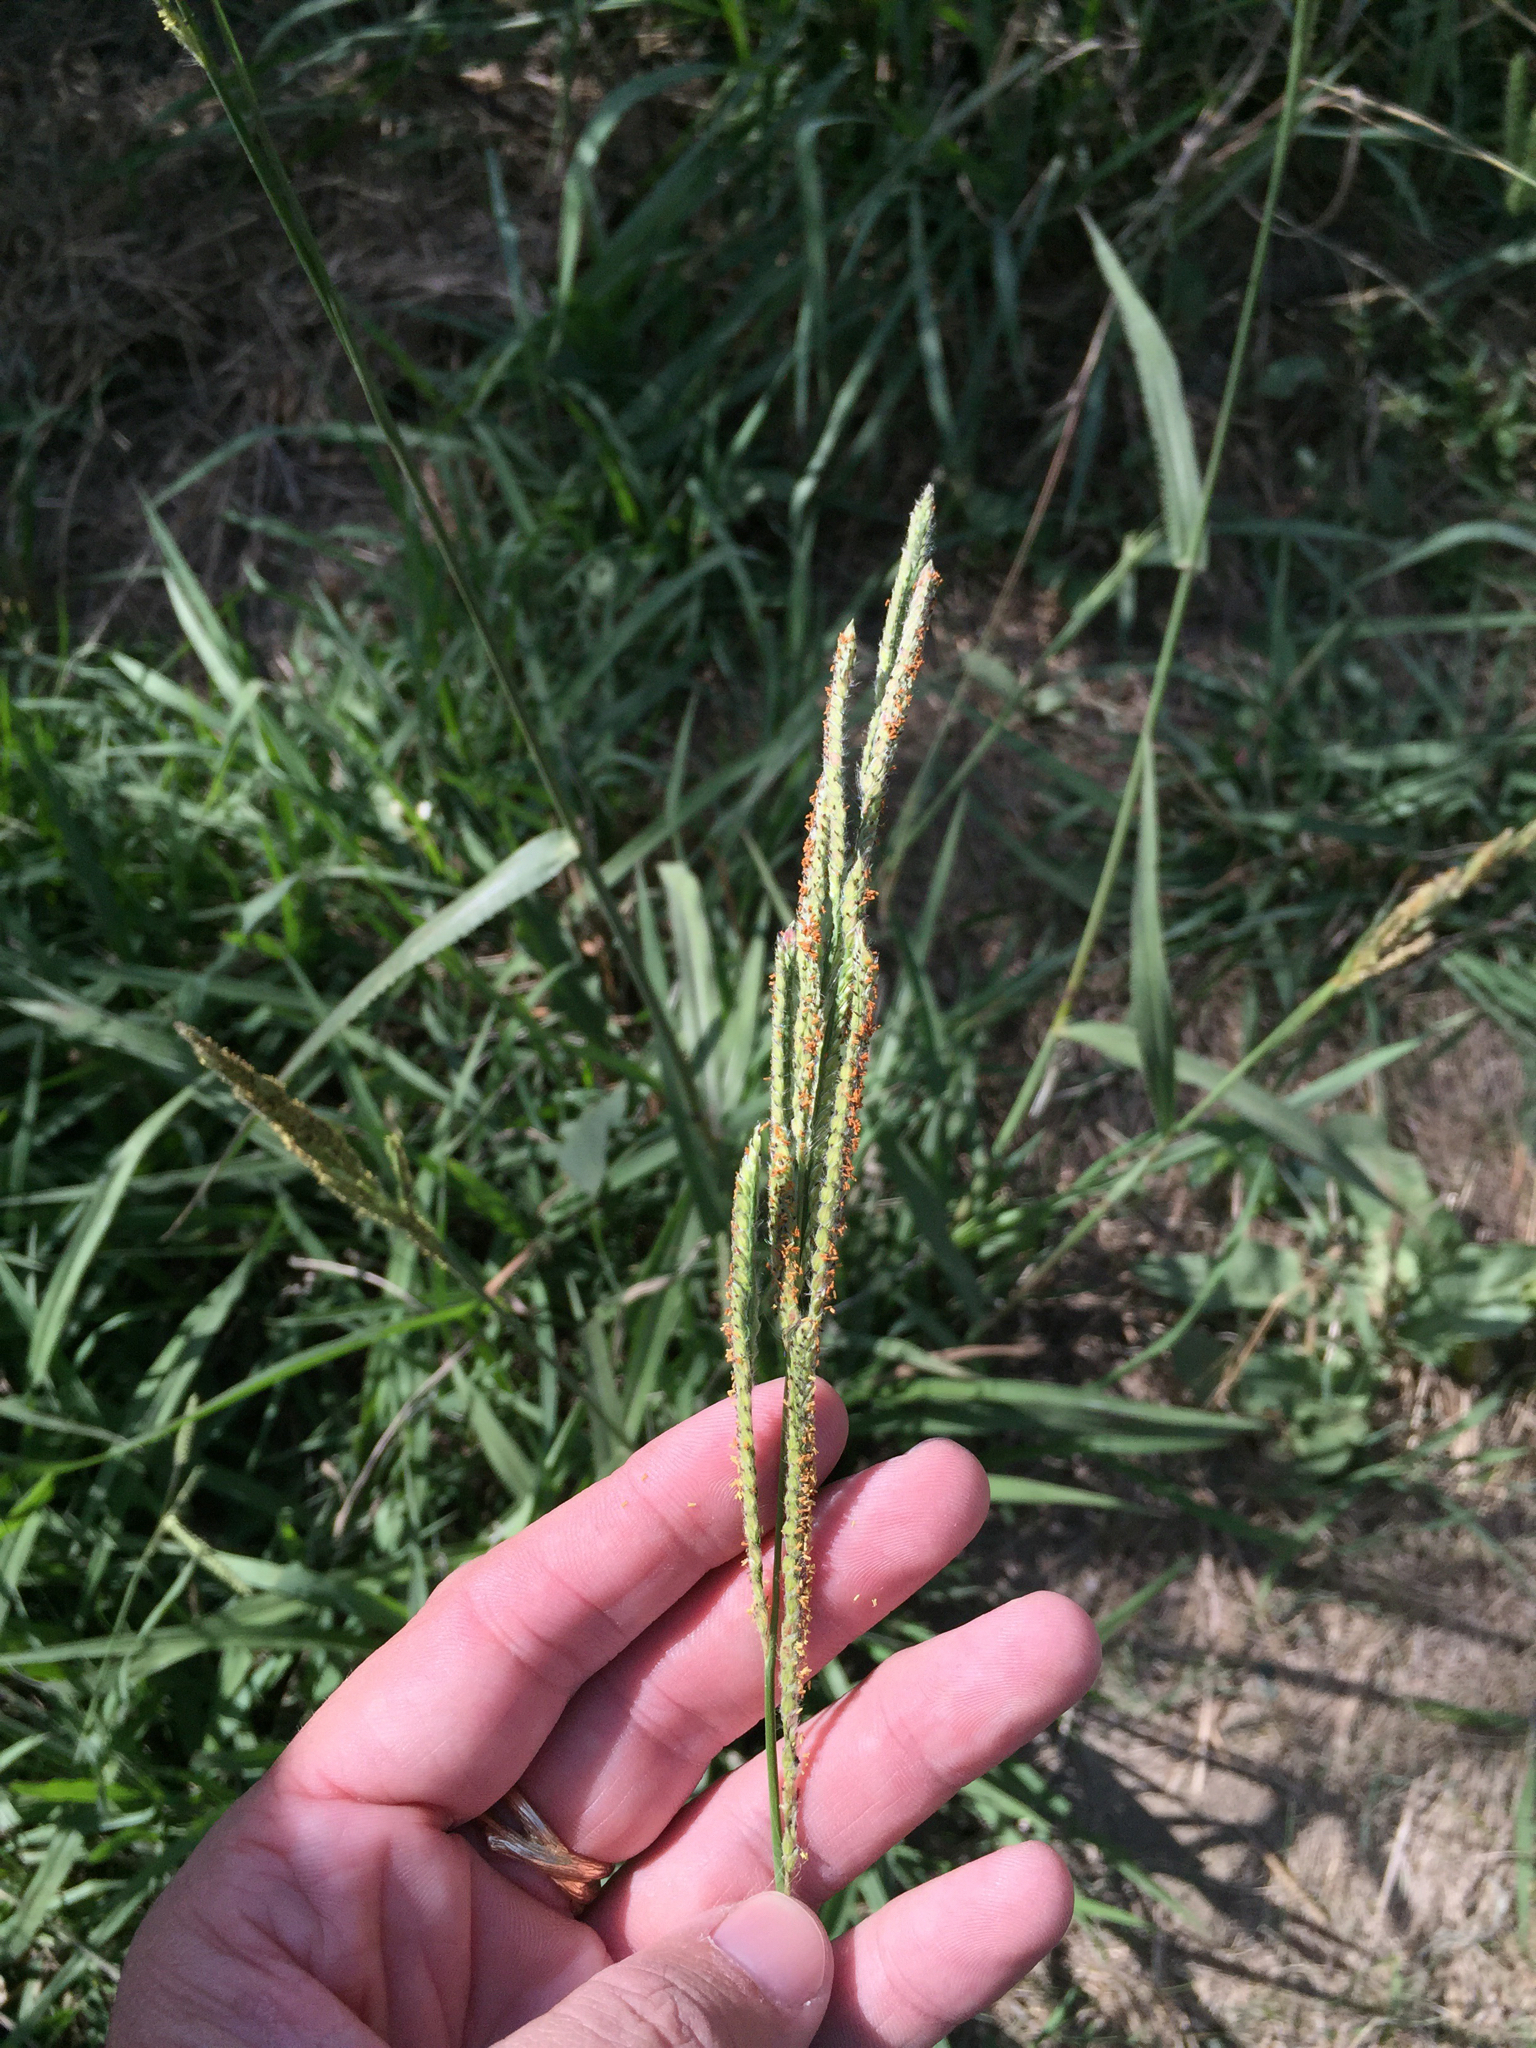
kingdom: Plantae
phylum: Tracheophyta
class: Liliopsida
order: Poales
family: Poaceae
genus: Paspalum
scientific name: Paspalum urvillei
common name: Vasey's grass
